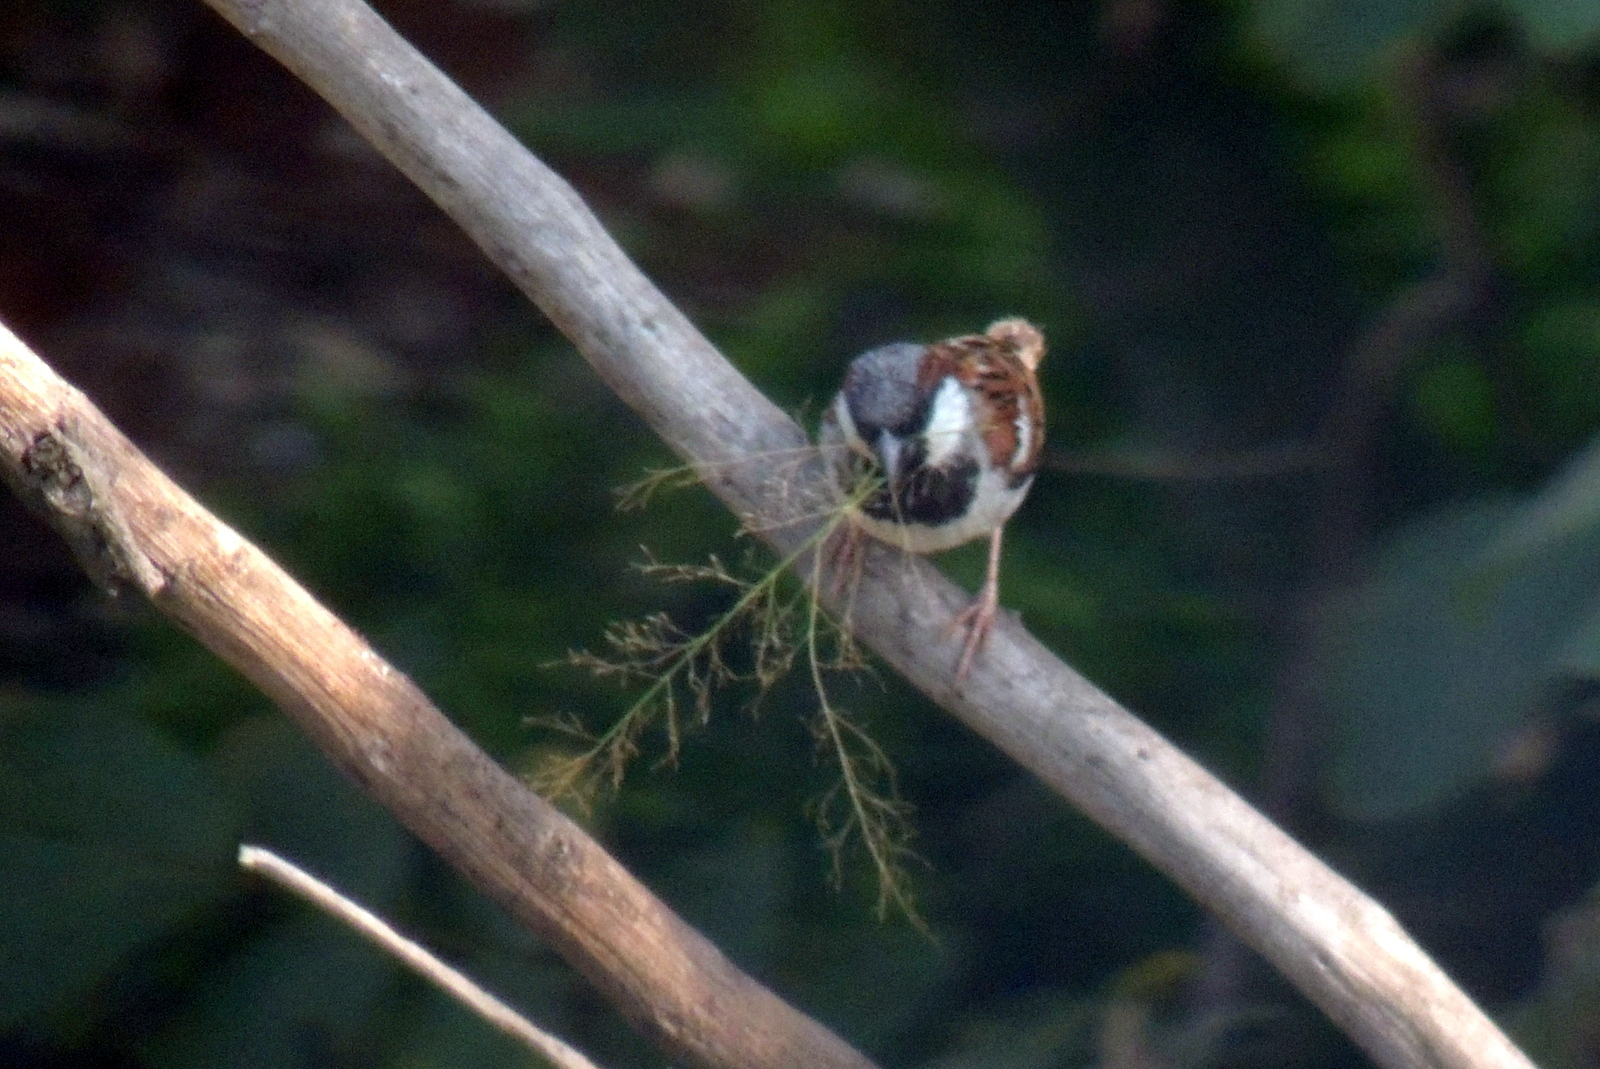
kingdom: Animalia
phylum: Chordata
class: Aves
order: Passeriformes
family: Passeridae
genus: Passer
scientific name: Passer domesticus
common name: House sparrow
